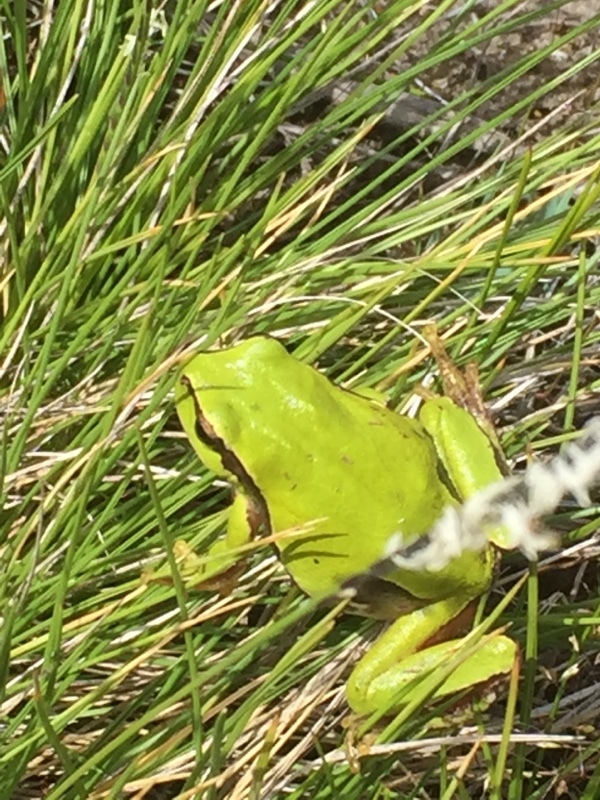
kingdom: Animalia
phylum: Chordata
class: Amphibia
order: Anura
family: Hylidae
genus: Hyla
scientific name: Hyla molleri
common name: Iberian tree frog
